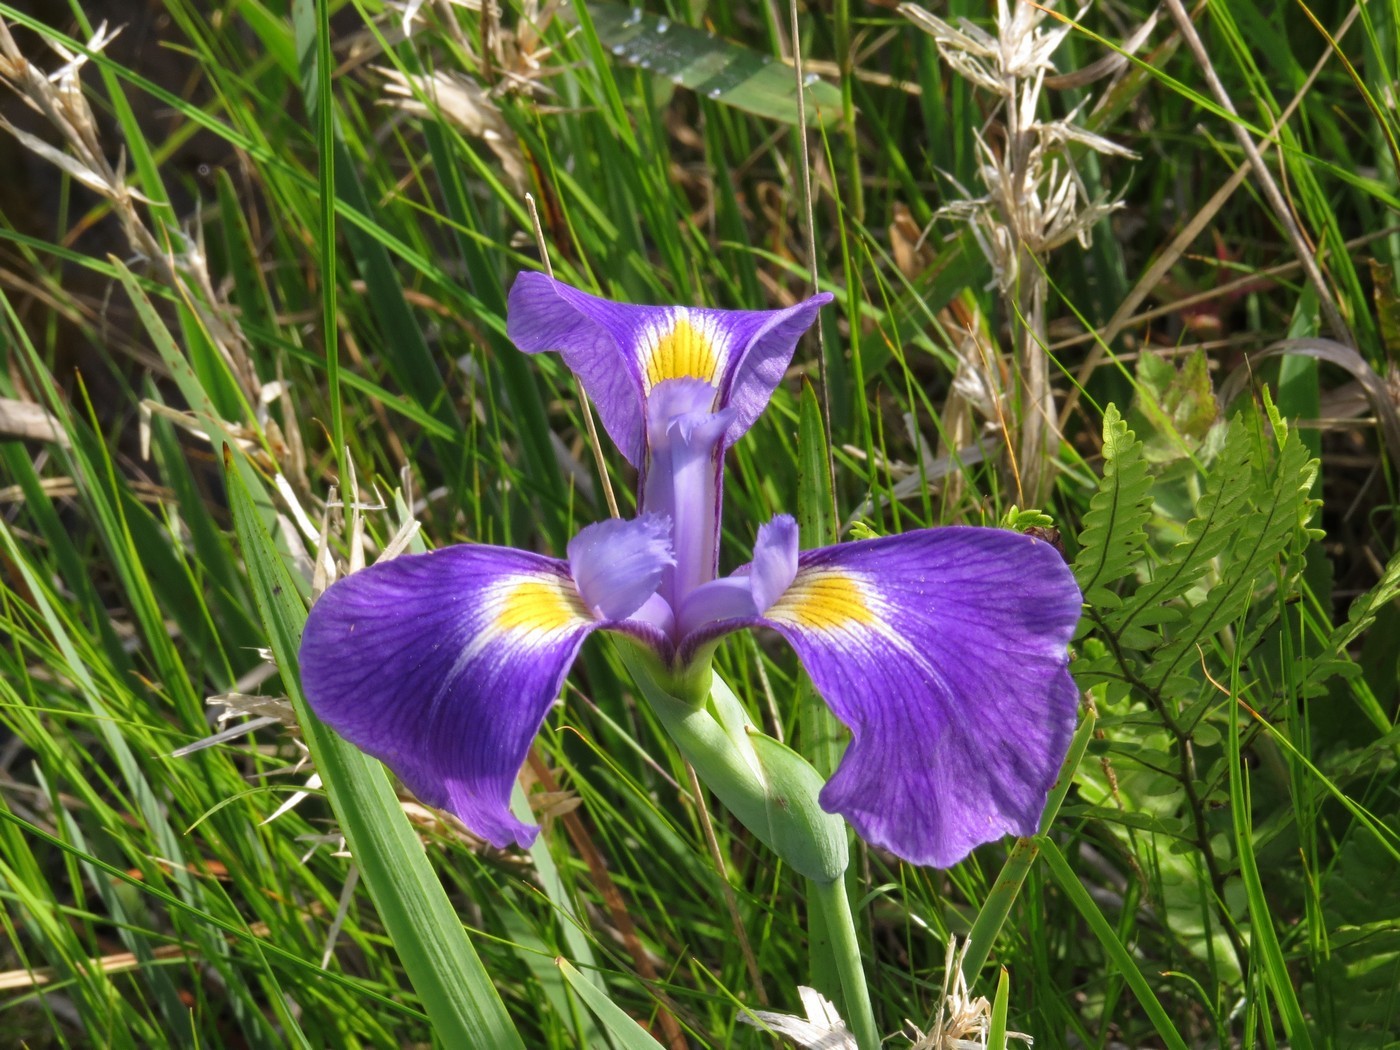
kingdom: Plantae
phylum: Tracheophyta
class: Liliopsida
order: Asparagales
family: Iridaceae
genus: Iris
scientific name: Iris tridentata
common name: Savannah iris
